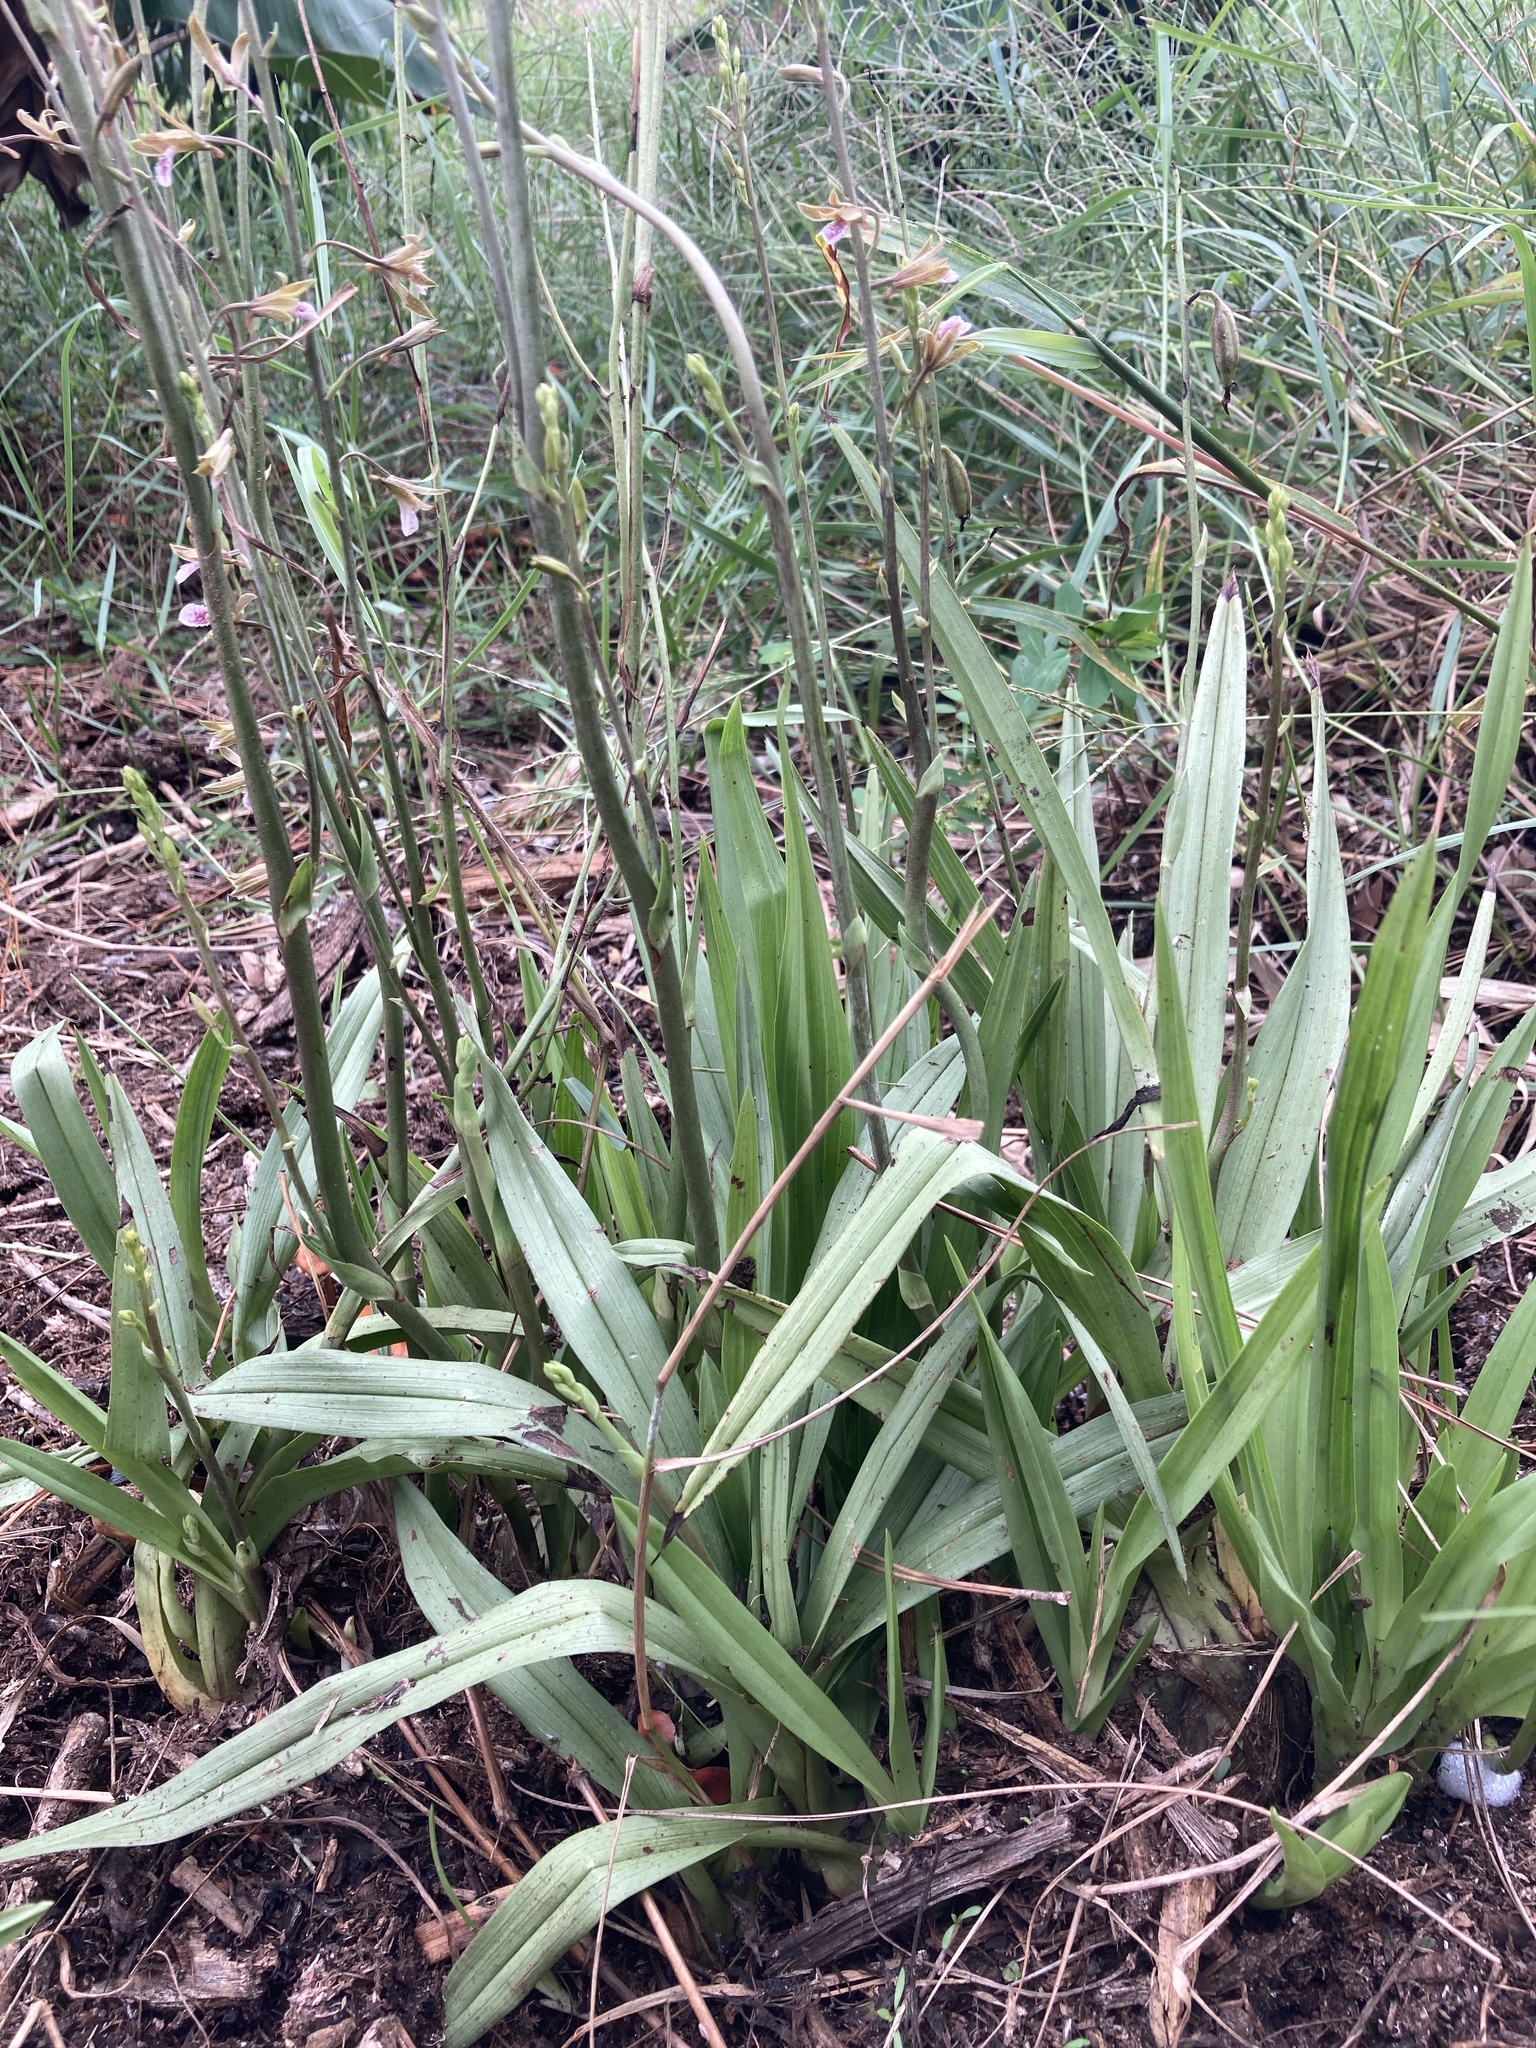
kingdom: Plantae
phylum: Tracheophyta
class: Liliopsida
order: Asparagales
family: Orchidaceae
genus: Eulophia
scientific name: Eulophia graminea
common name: Orchid
